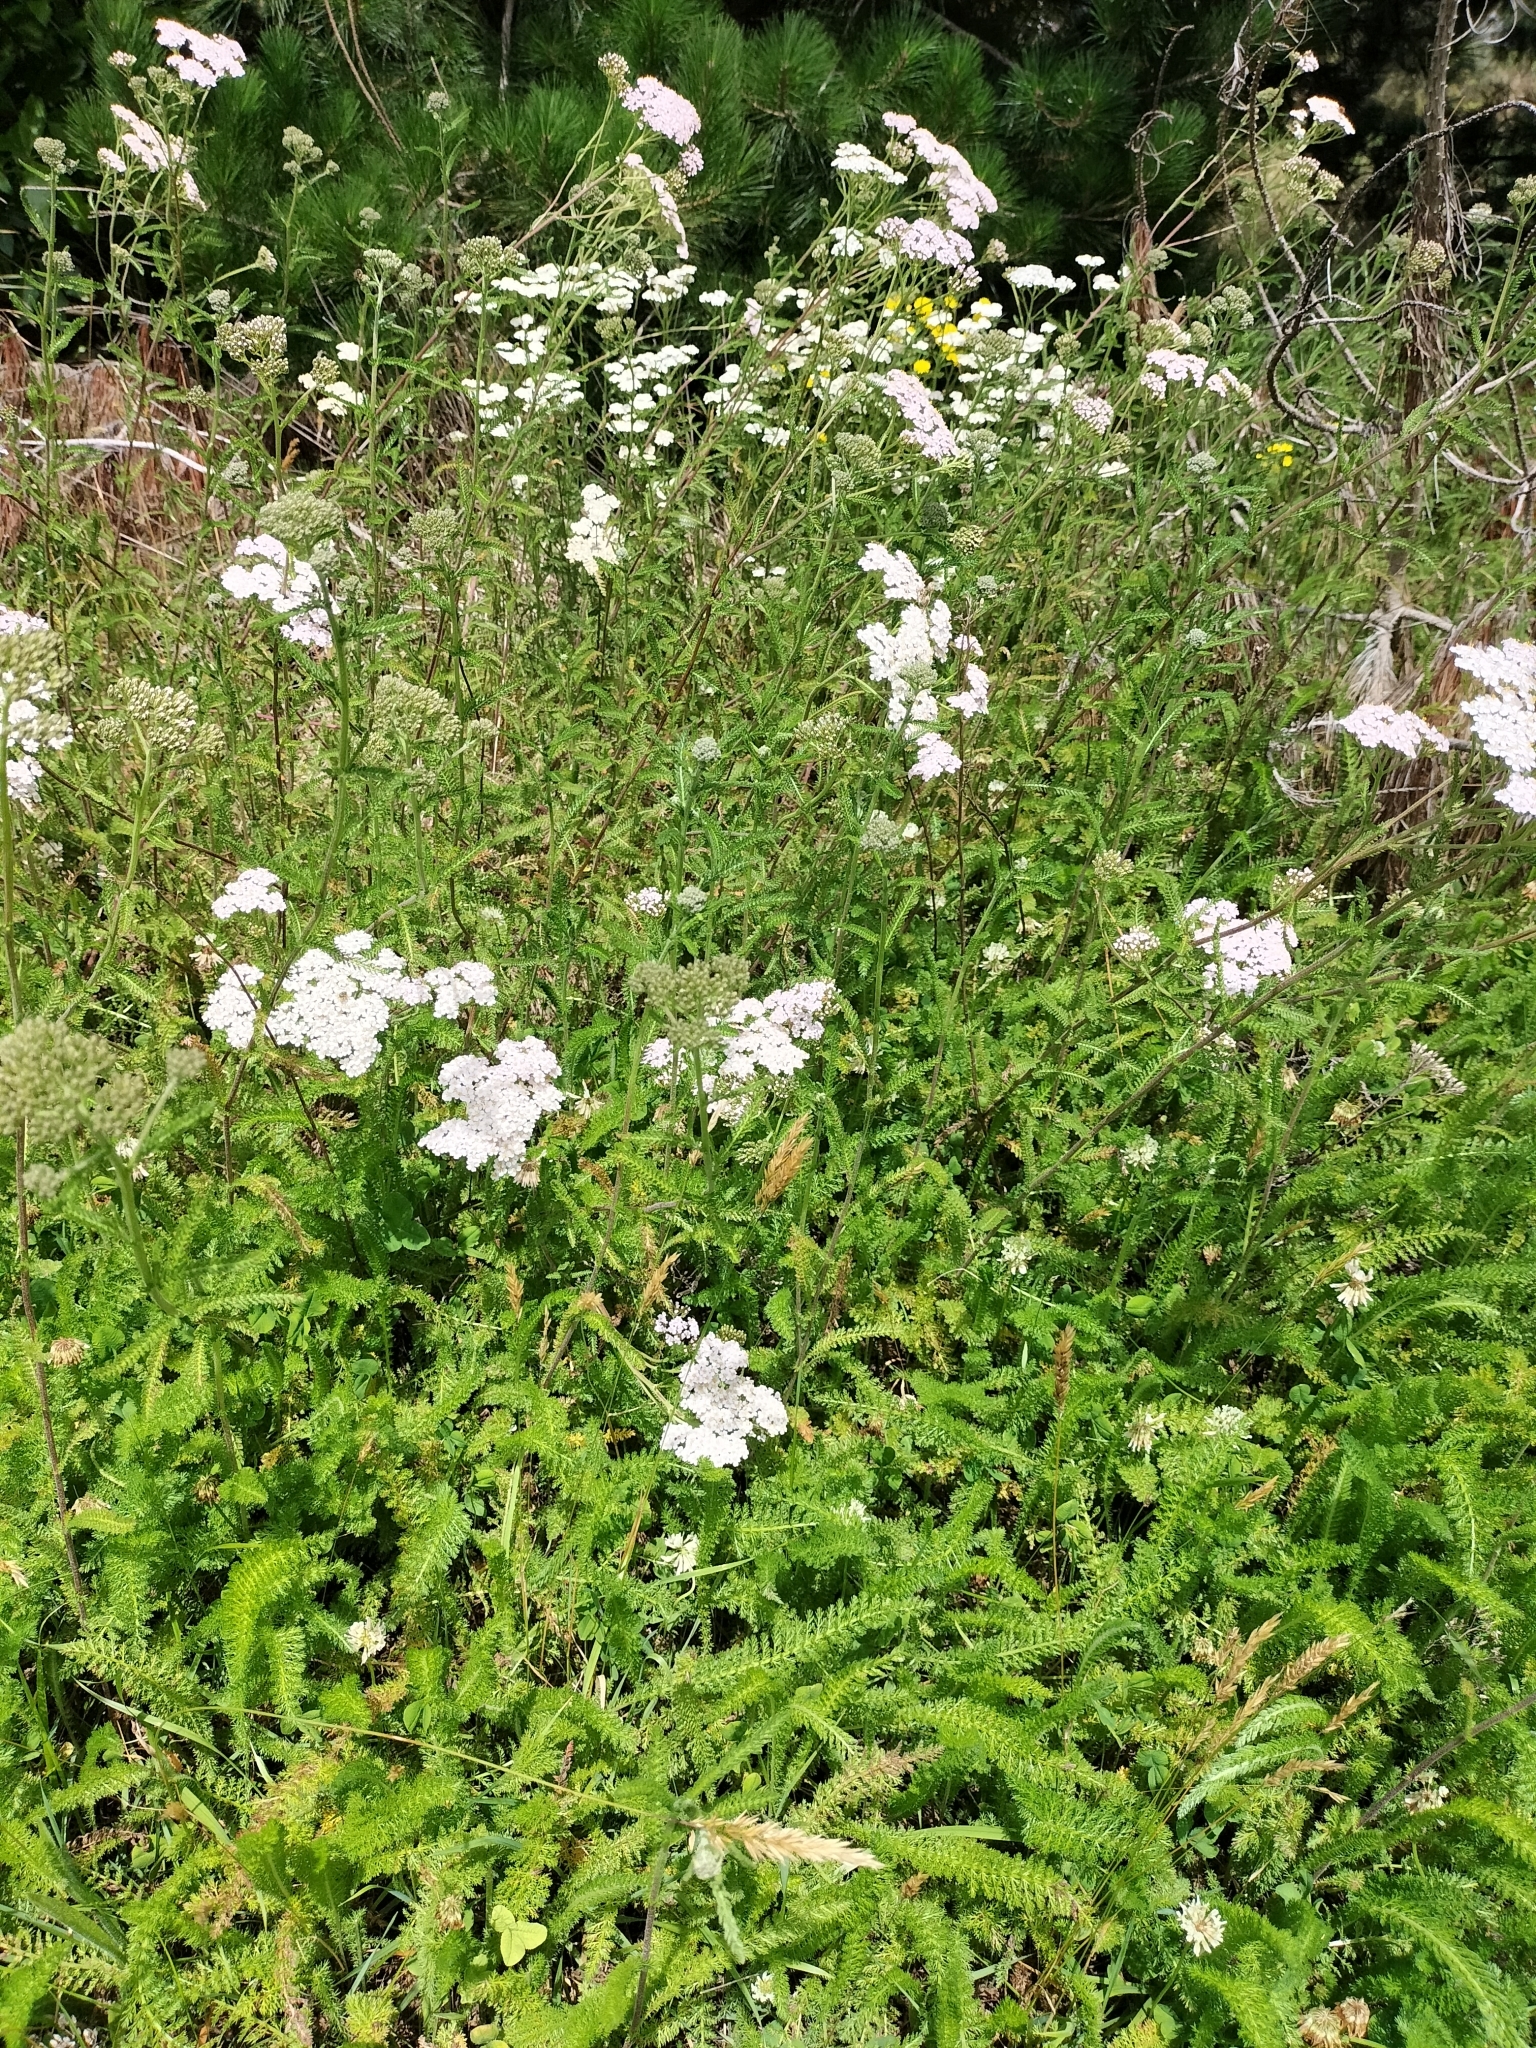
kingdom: Plantae
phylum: Tracheophyta
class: Magnoliopsida
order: Asterales
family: Asteraceae
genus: Achillea
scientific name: Achillea millefolium
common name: Yarrow
